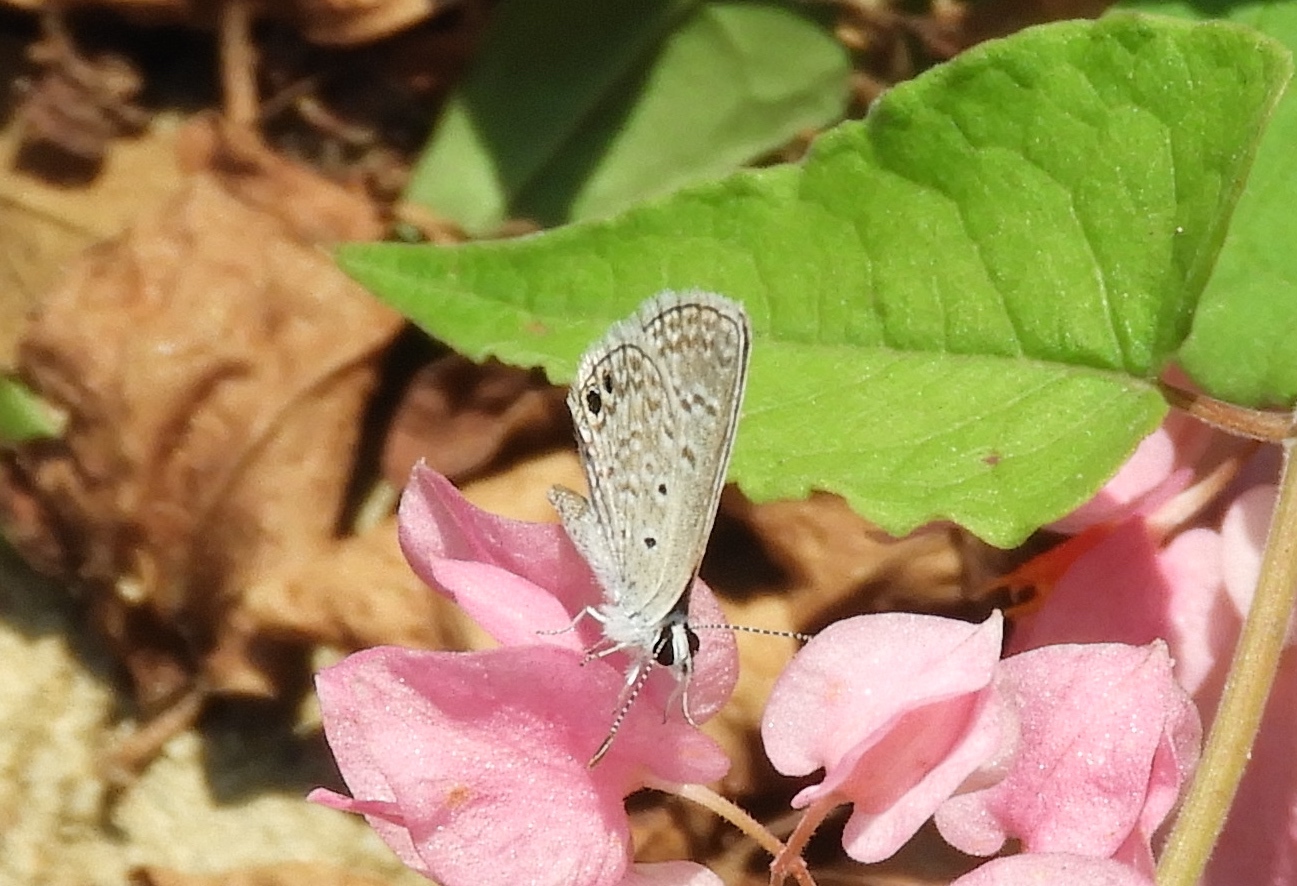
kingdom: Animalia
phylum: Arthropoda
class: Insecta
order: Lepidoptera
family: Lycaenidae
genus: Hemiargus
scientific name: Hemiargus ceraunus
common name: Ceraunus blue
